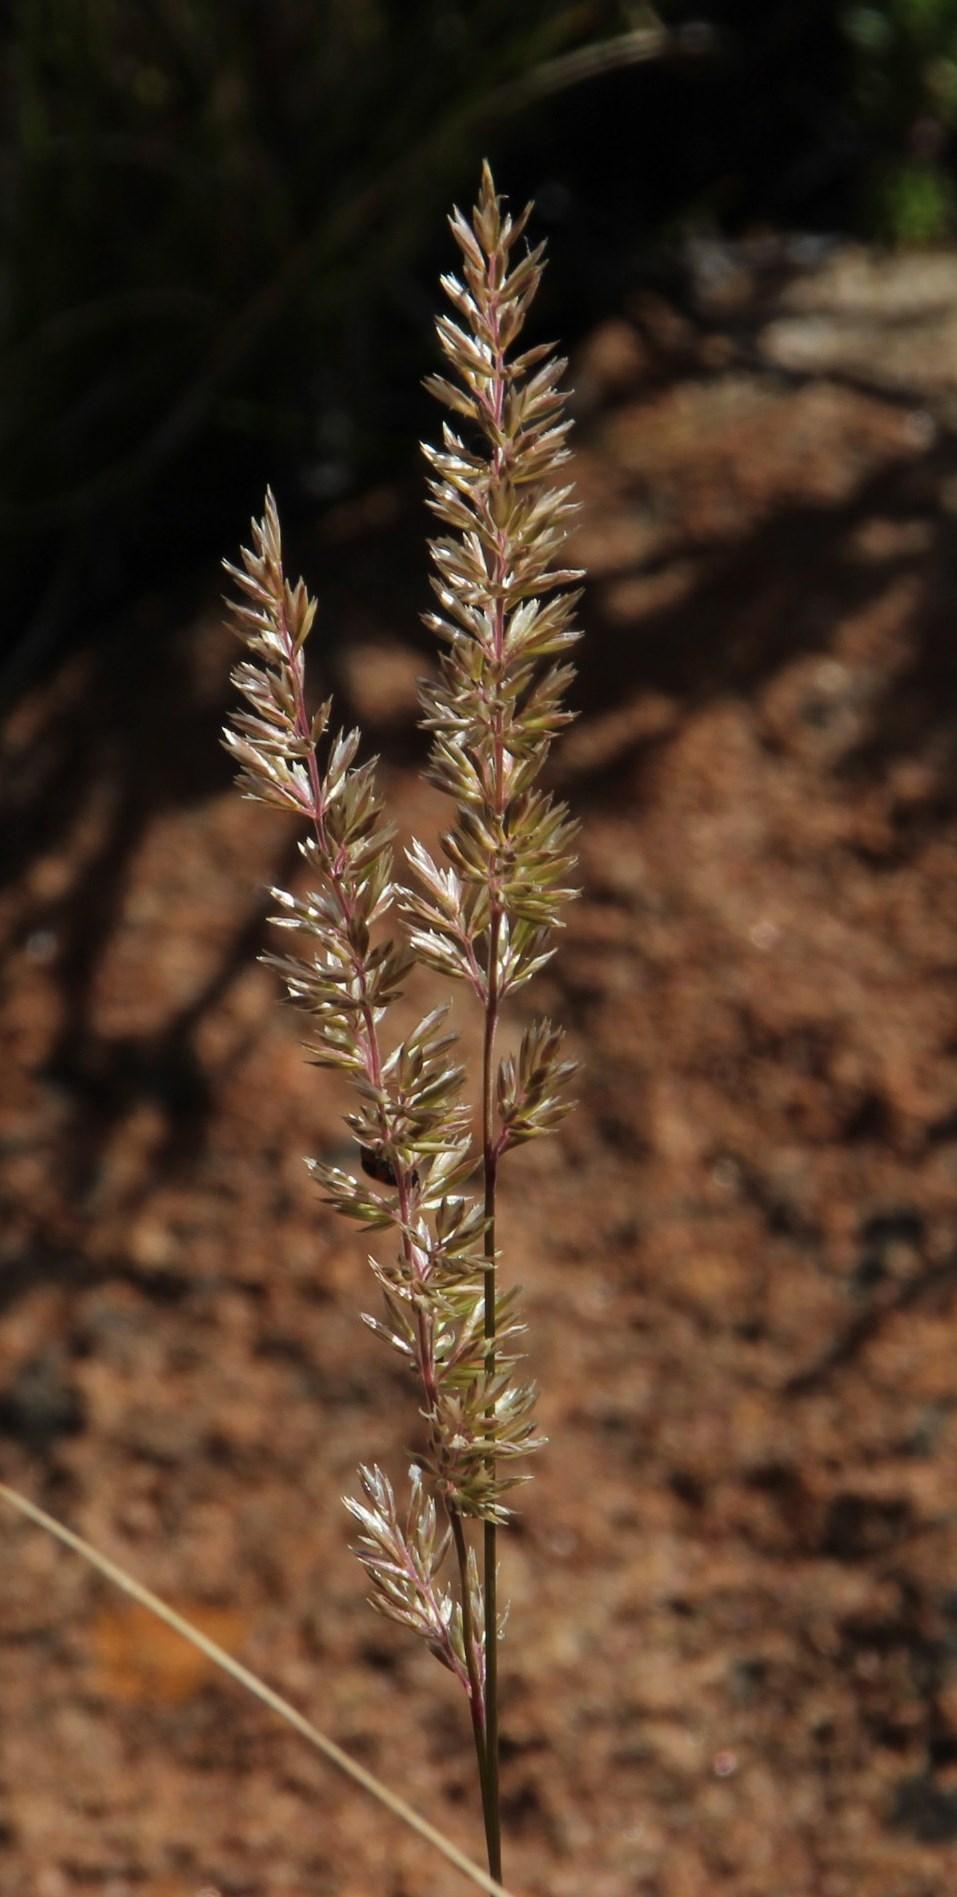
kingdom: Plantae
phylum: Tracheophyta
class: Liliopsida
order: Poales
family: Poaceae
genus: Koeleria
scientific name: Koeleria capensis
